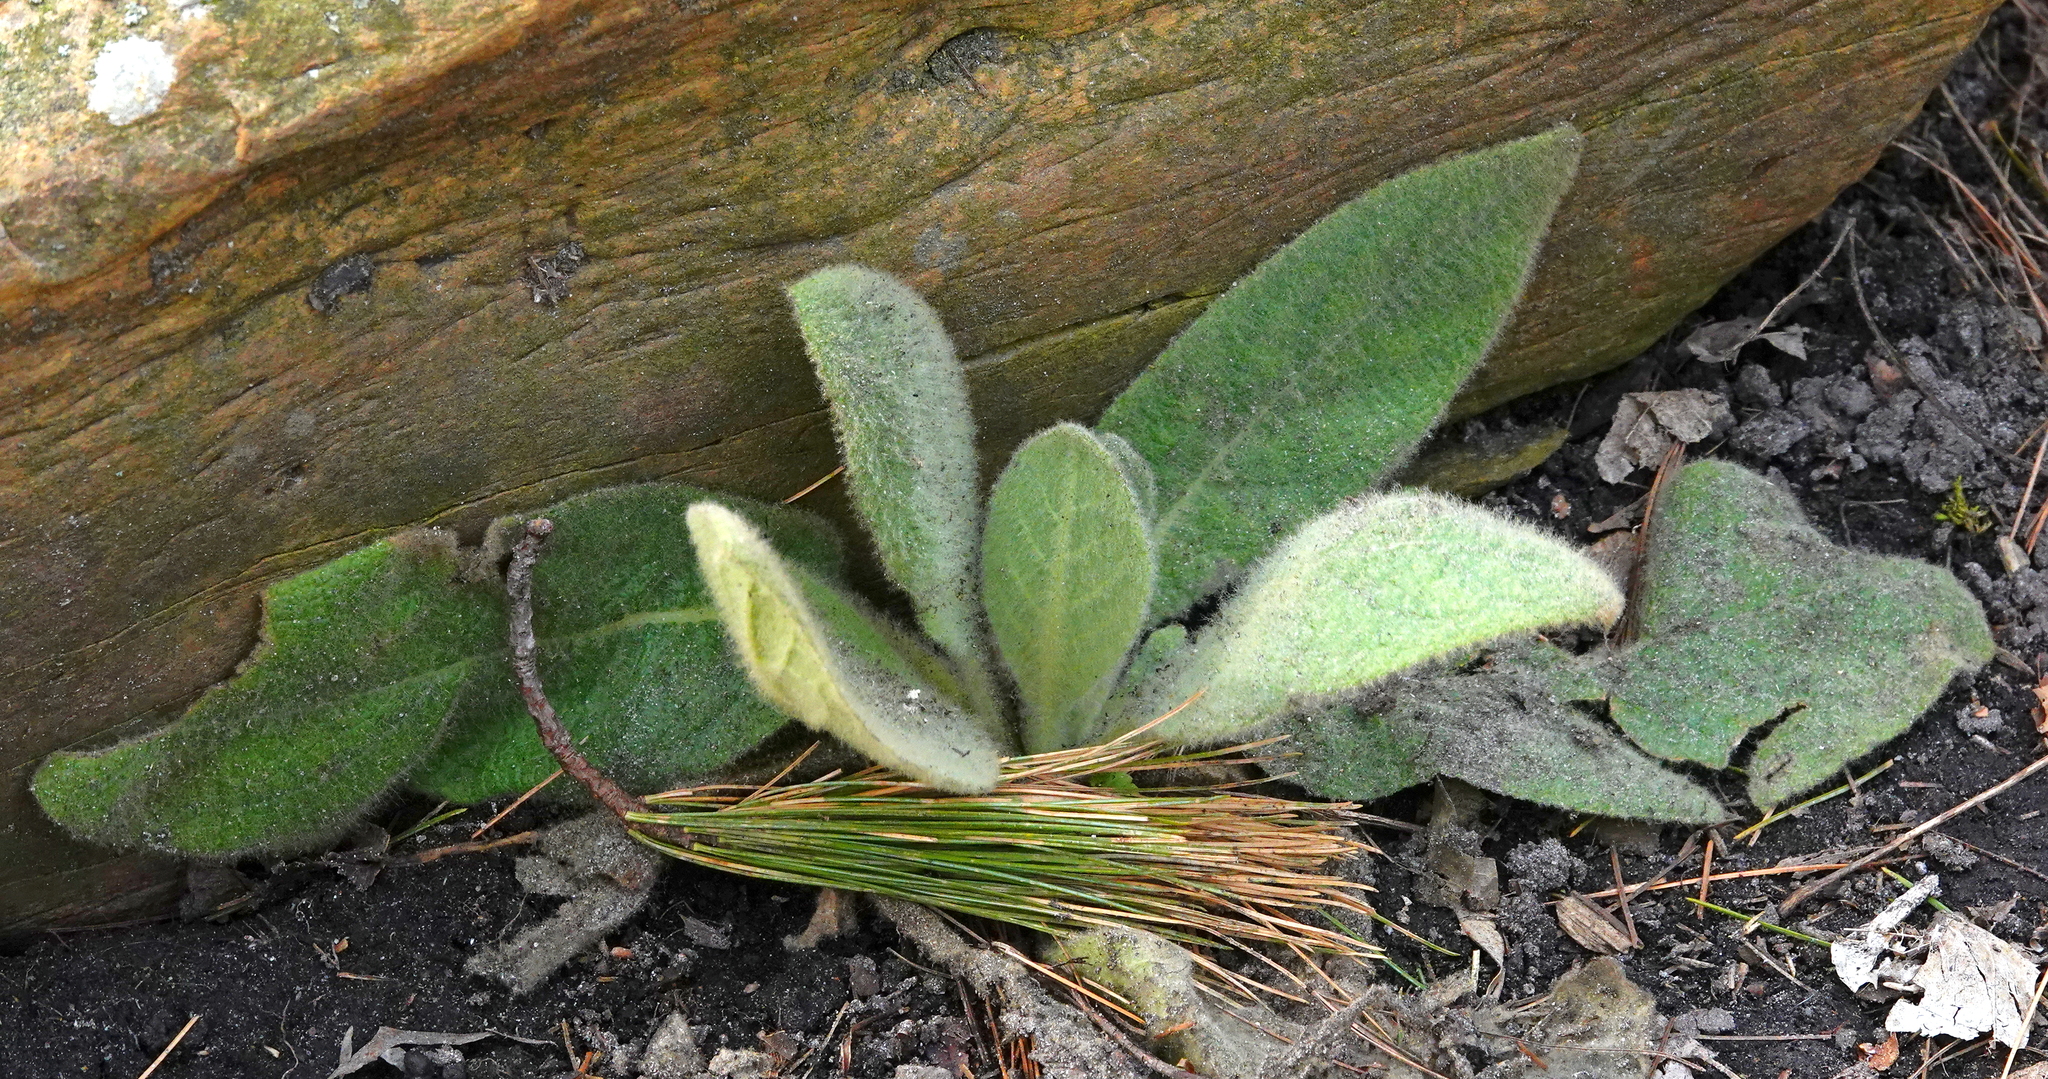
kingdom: Plantae
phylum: Tracheophyta
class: Magnoliopsida
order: Lamiales
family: Scrophulariaceae
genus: Verbascum
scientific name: Verbascum thapsus
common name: Common mullein
